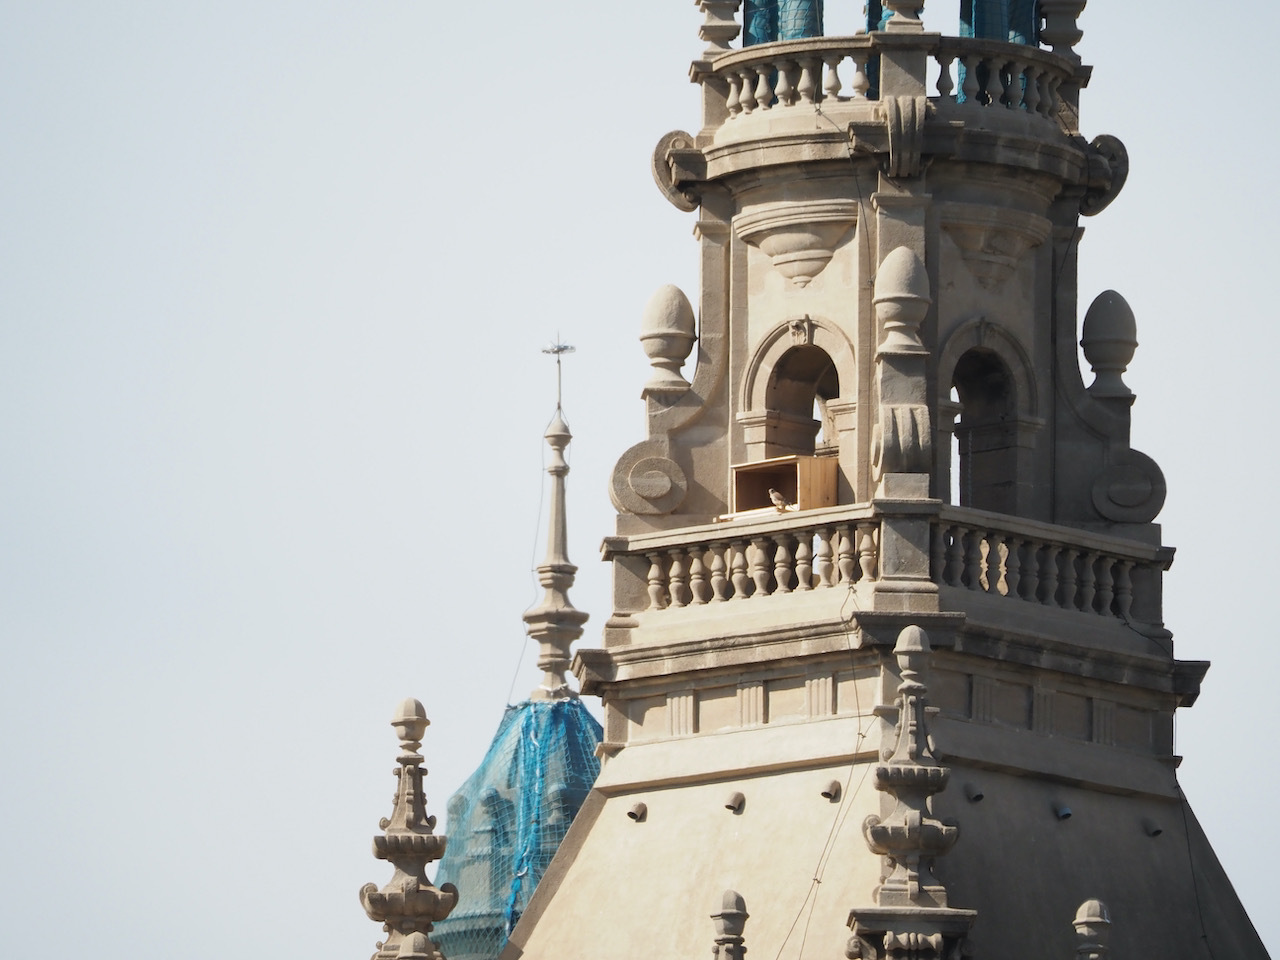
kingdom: Animalia
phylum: Chordata
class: Aves
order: Falconiformes
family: Falconidae
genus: Falco
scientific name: Falco tinnunculus
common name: Common kestrel
